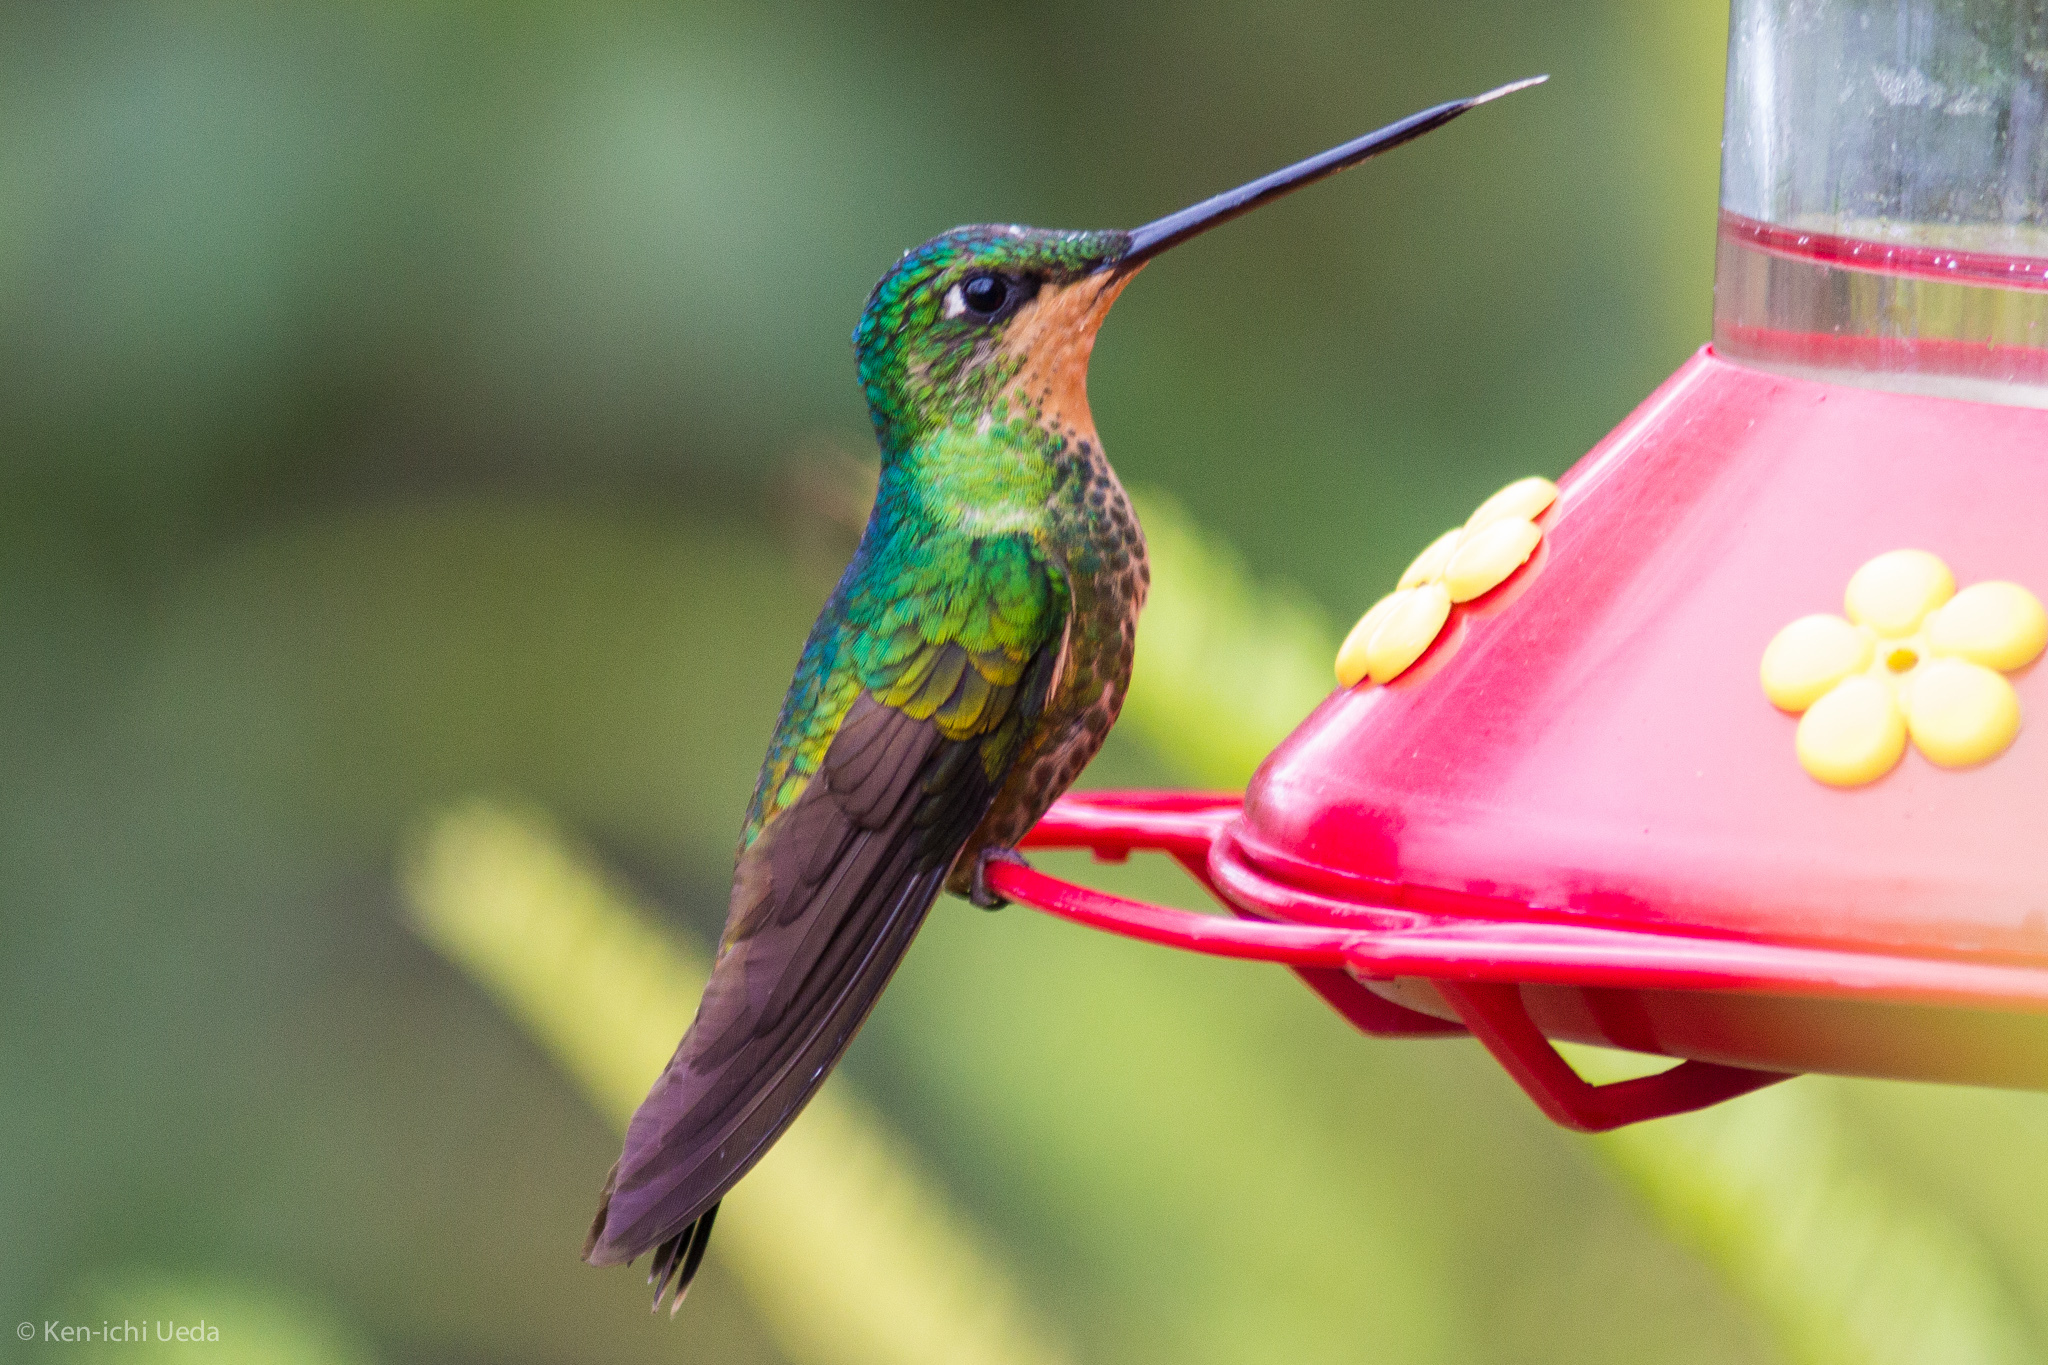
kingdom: Animalia
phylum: Chordata
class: Aves
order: Apodiformes
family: Trochilidae
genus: Coeligena
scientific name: Coeligena bonapartei
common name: Golden-bellied starfrontlet
